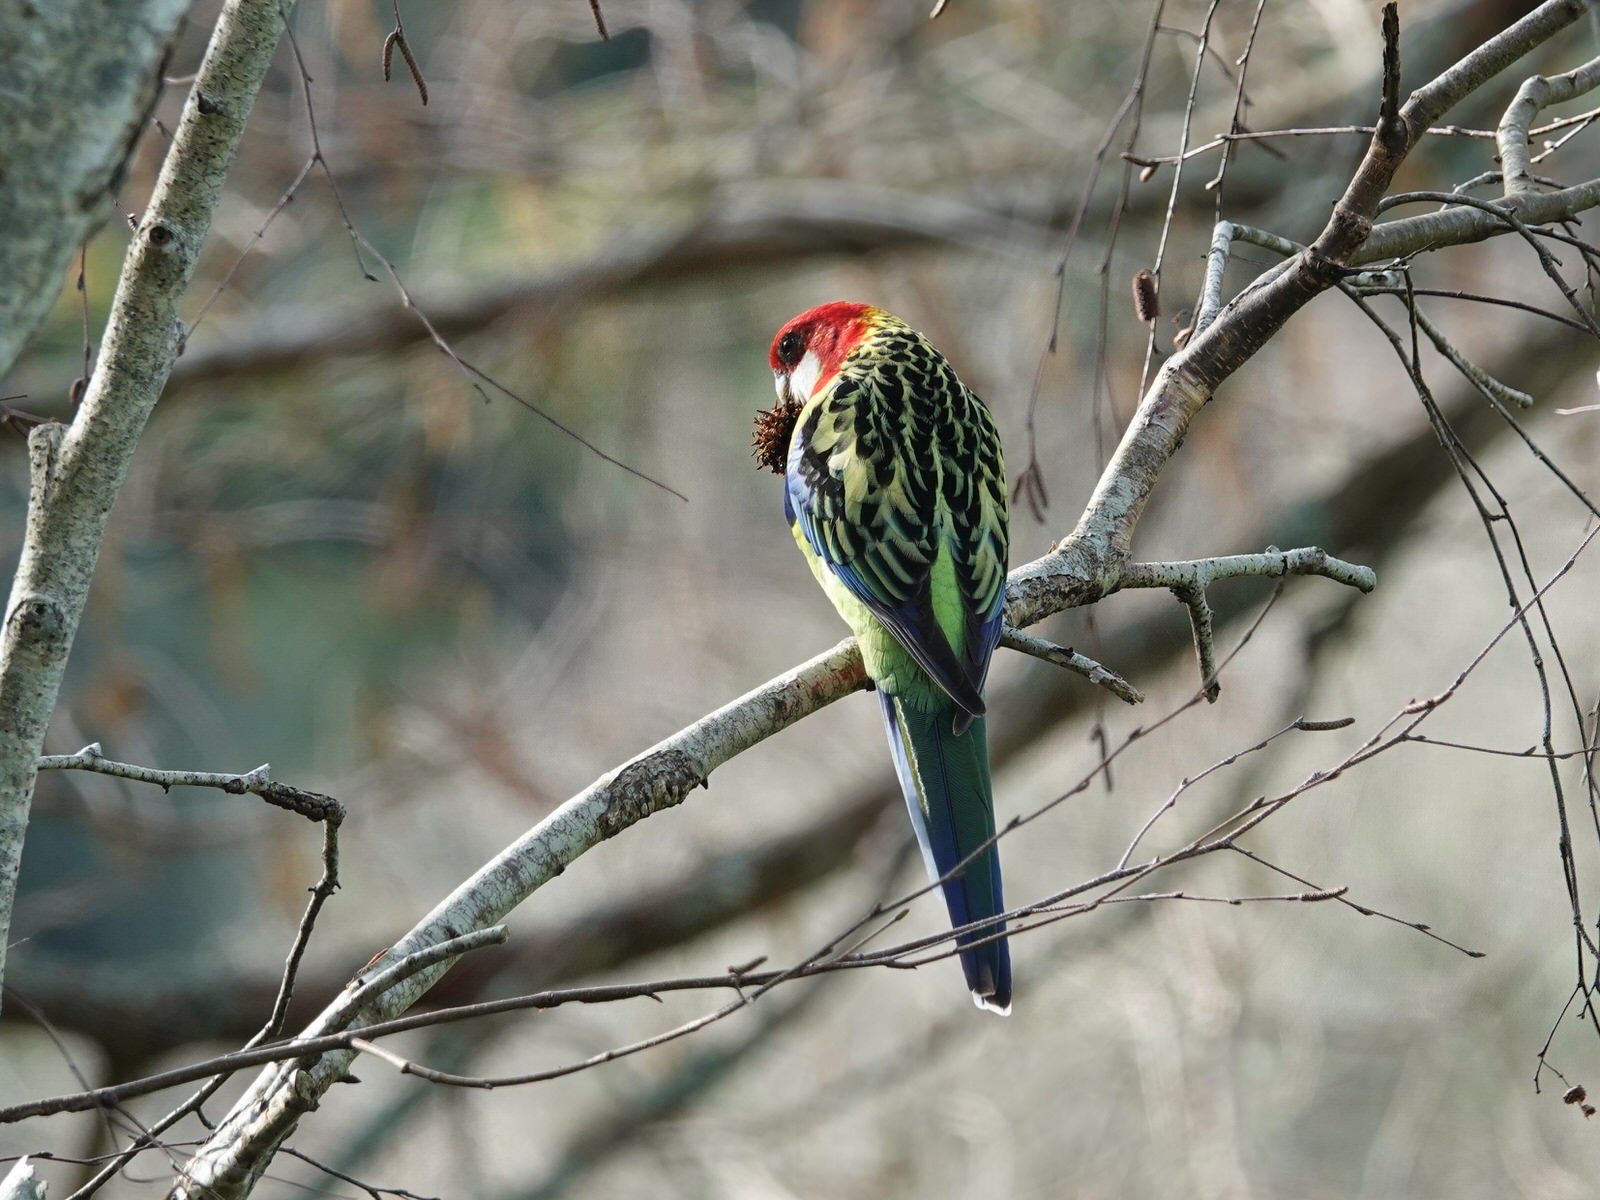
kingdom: Animalia
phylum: Chordata
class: Aves
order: Psittaciformes
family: Psittacidae
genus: Platycercus
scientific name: Platycercus eximius
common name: Eastern rosella
